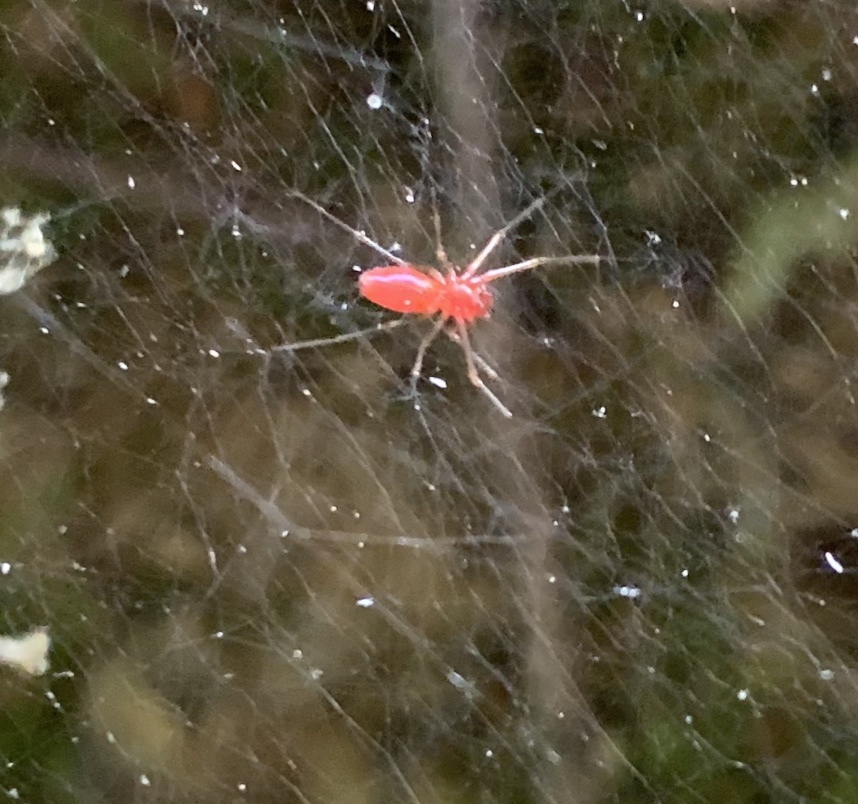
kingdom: Animalia
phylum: Arthropoda
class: Arachnida
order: Araneae
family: Linyphiidae
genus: Florinda
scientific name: Florinda coccinea
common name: Black-tailed red sheetweaver
